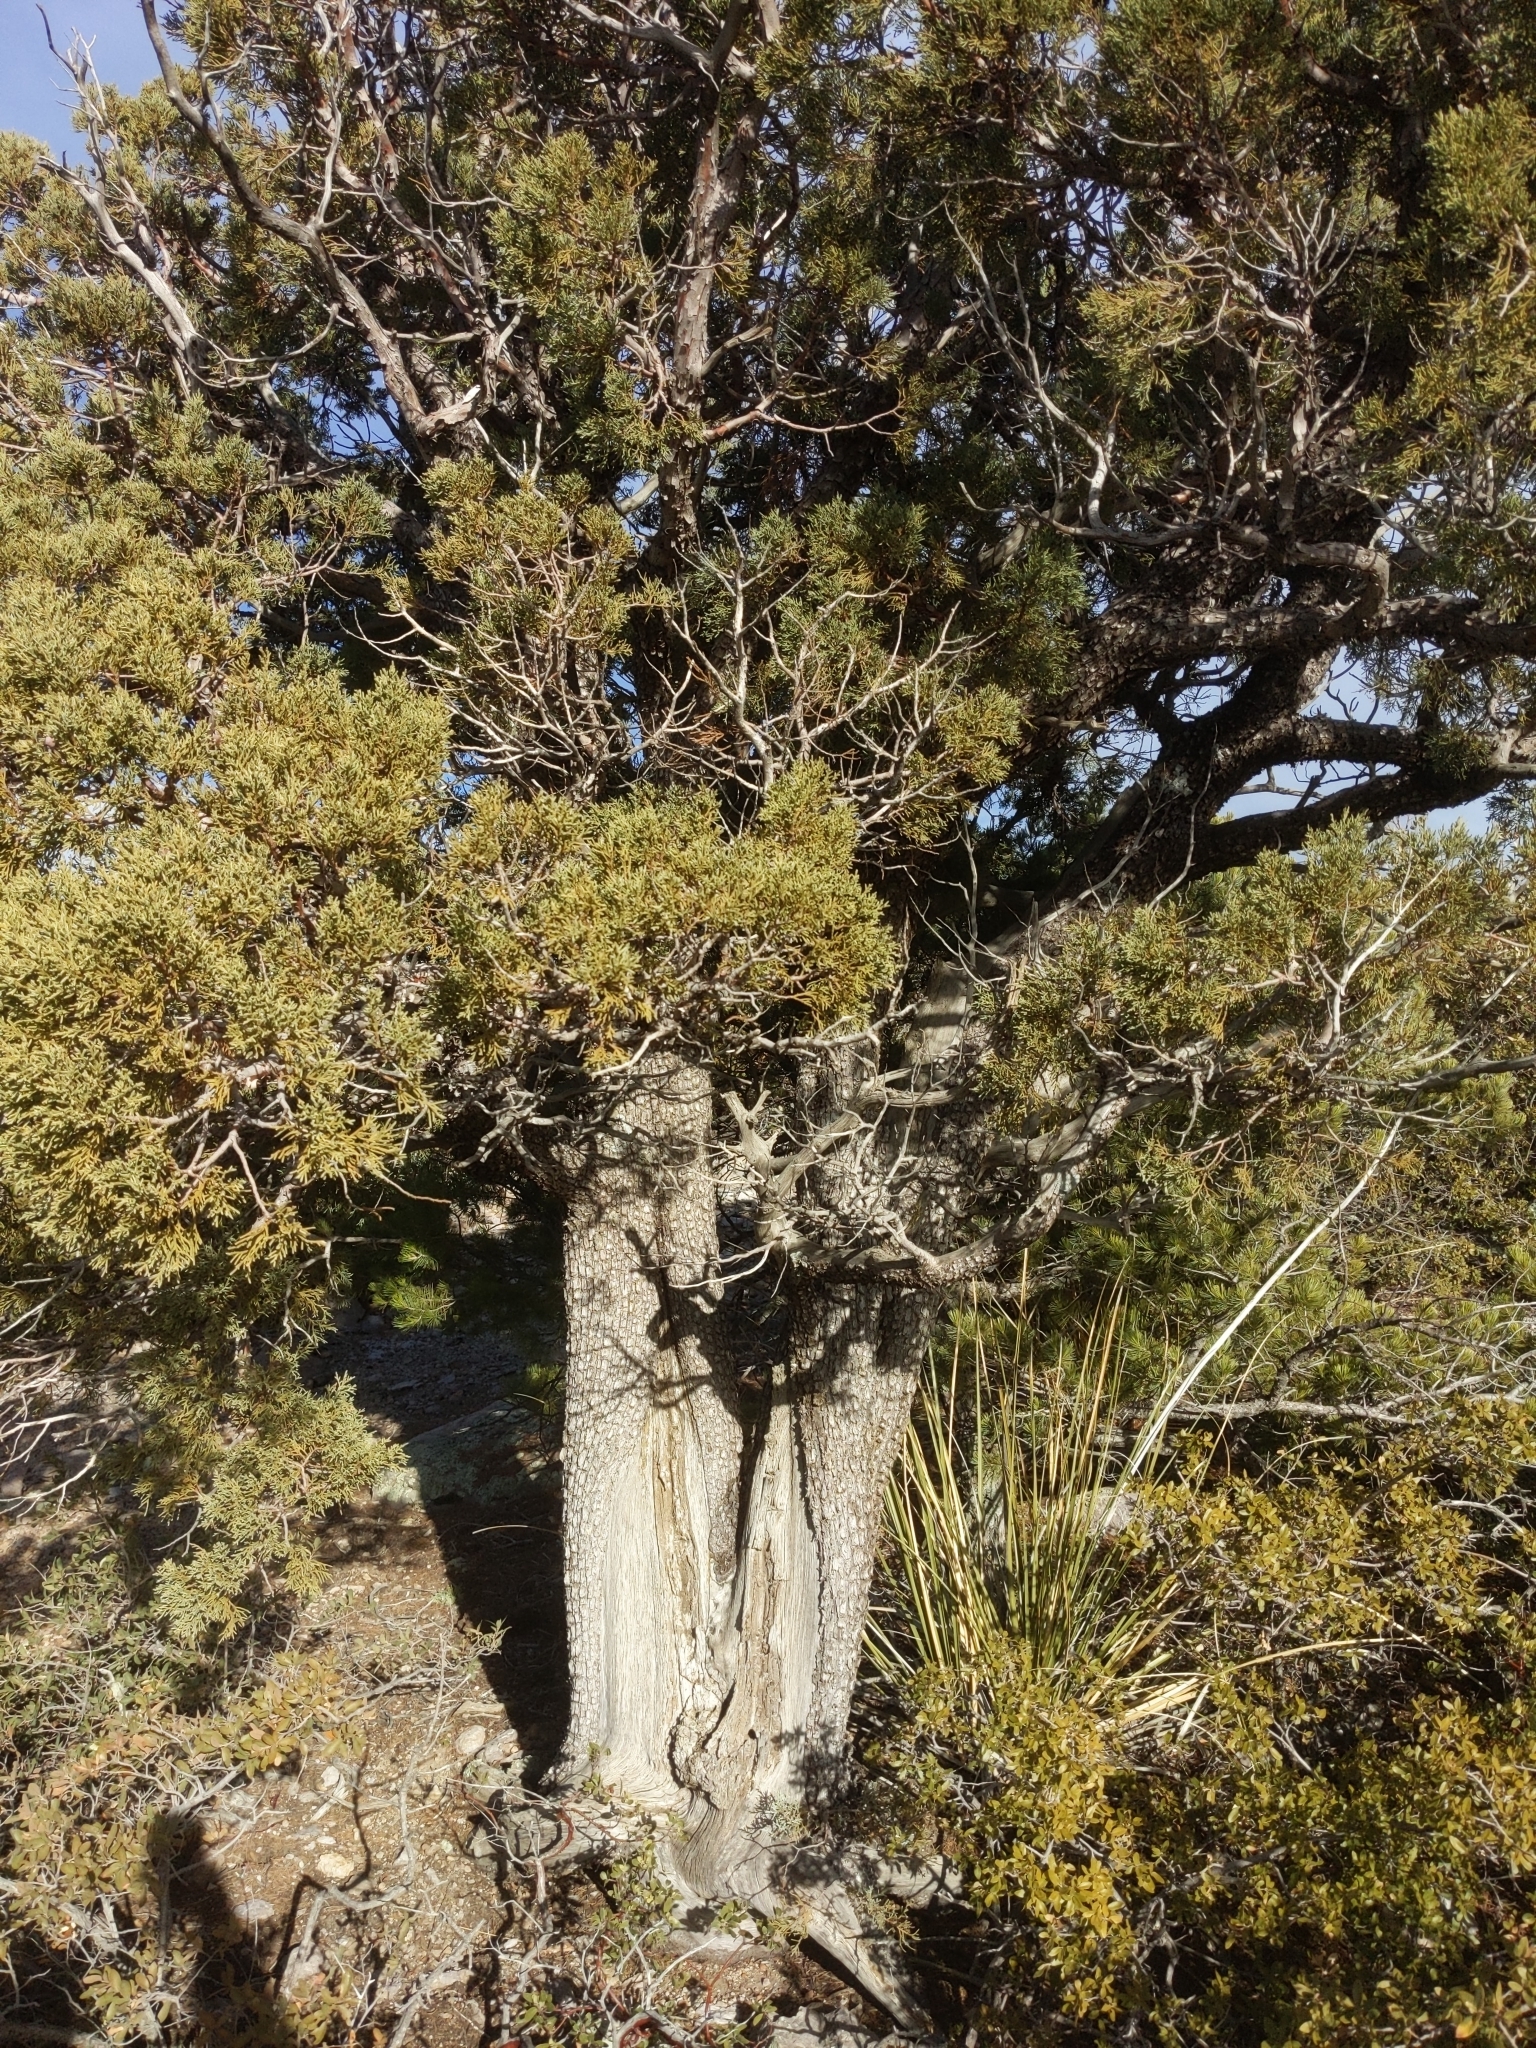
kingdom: Plantae
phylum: Tracheophyta
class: Pinopsida
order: Pinales
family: Cupressaceae
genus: Juniperus
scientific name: Juniperus deppeana
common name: Alligator juniper
